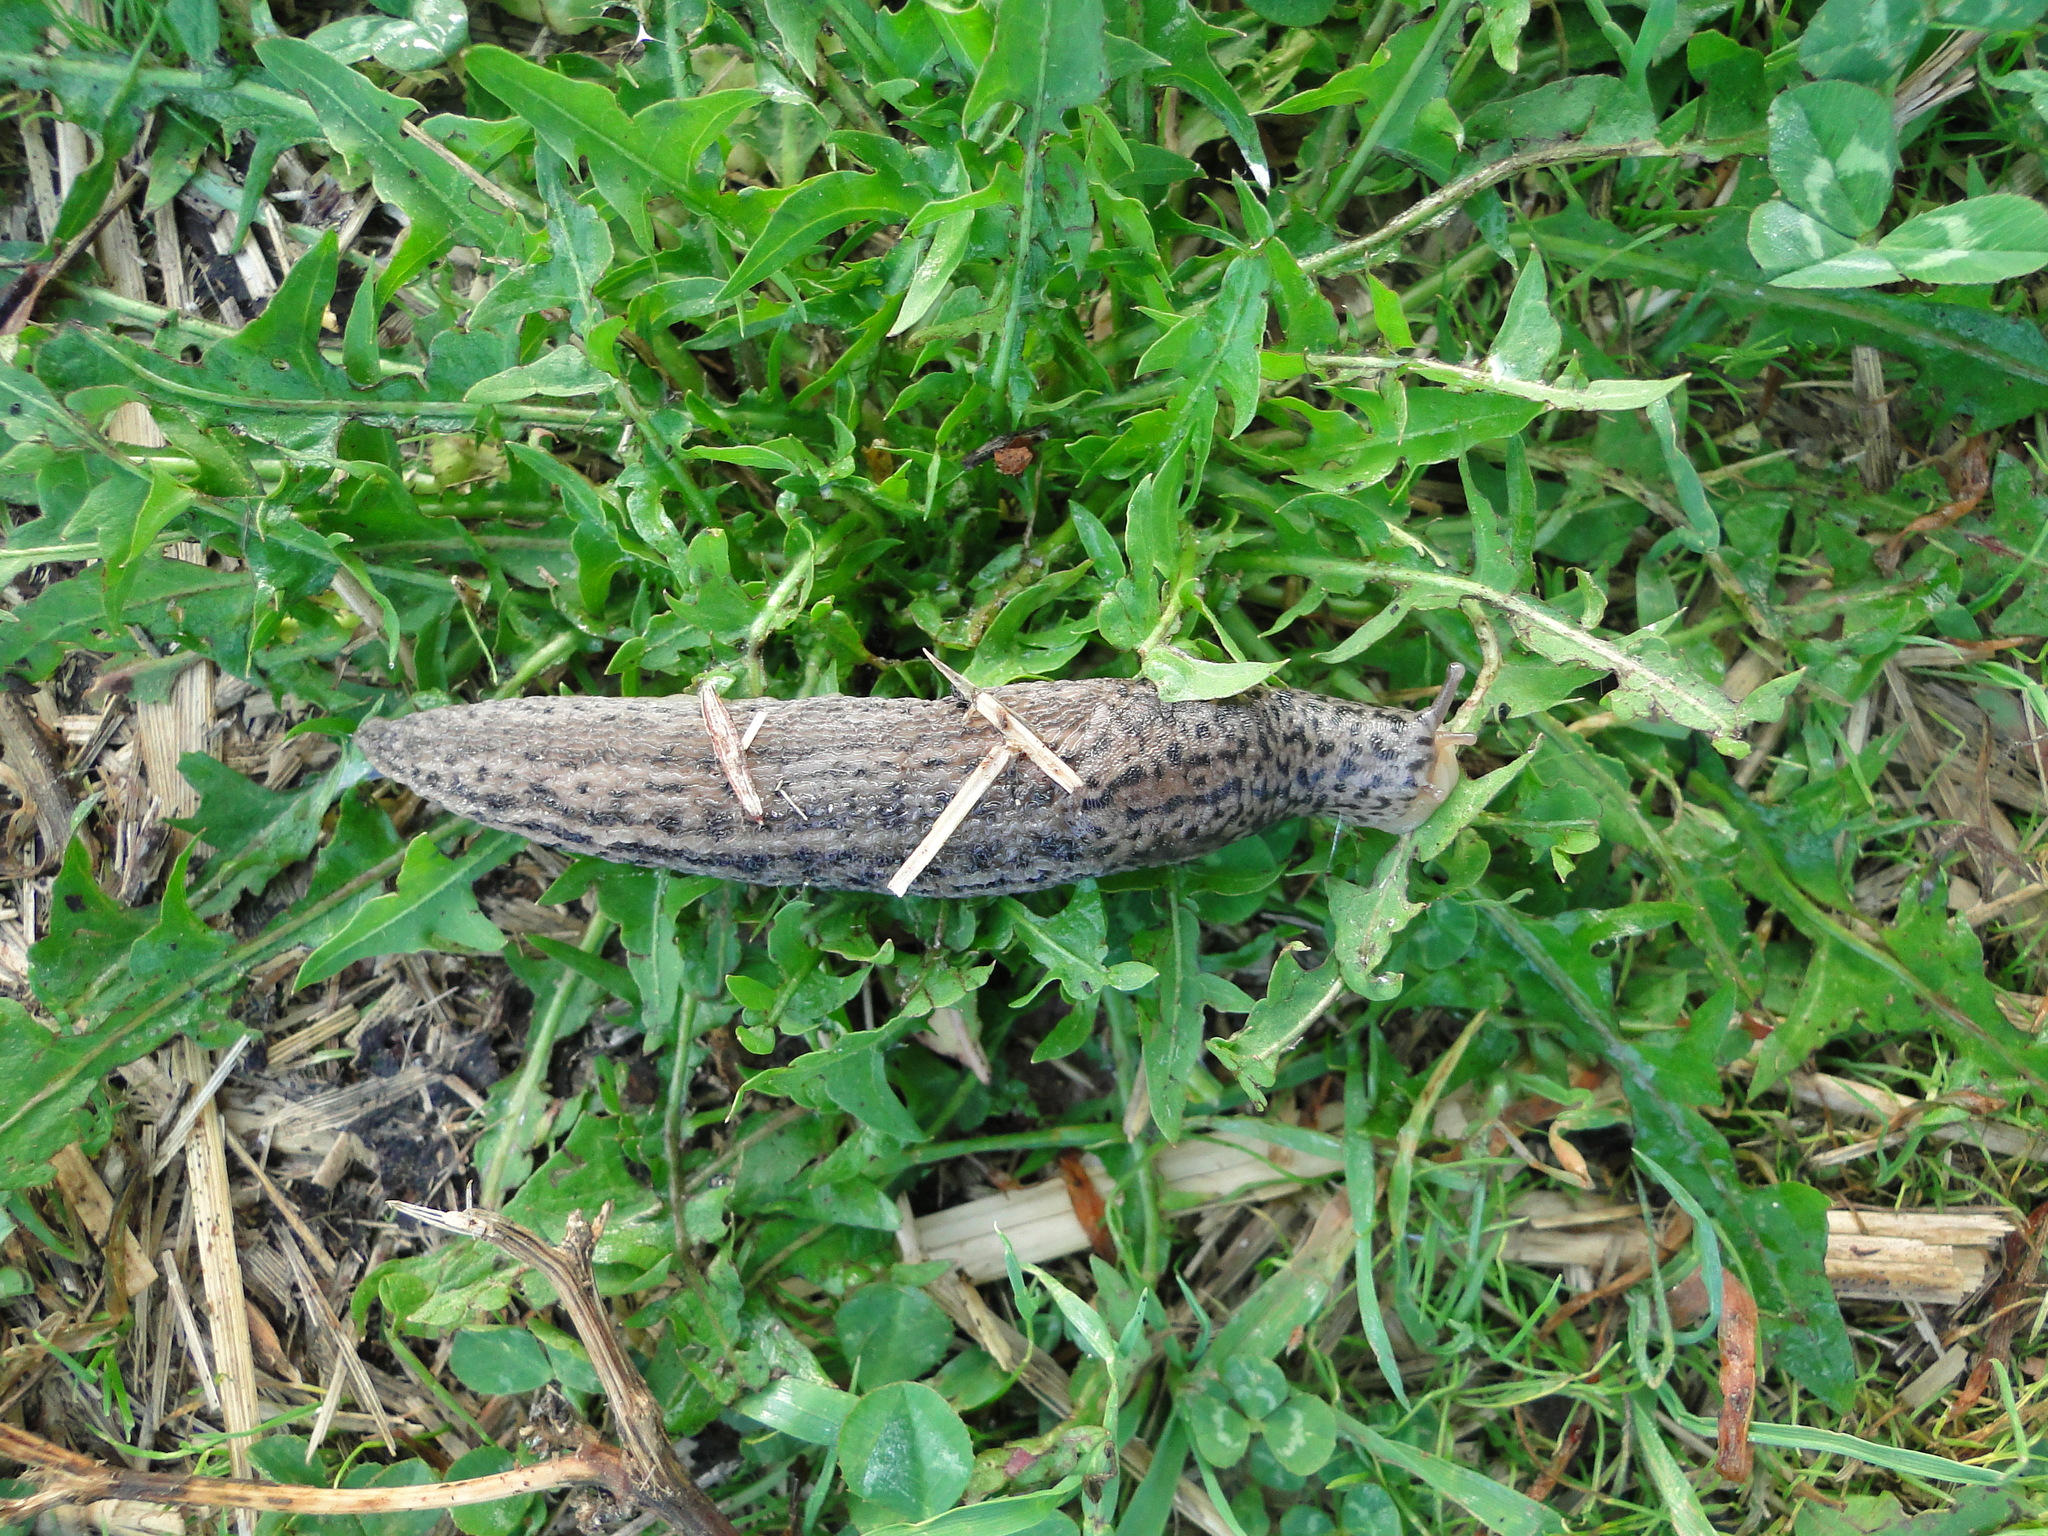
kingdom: Animalia
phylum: Mollusca
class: Gastropoda
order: Stylommatophora
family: Limacidae
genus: Limax
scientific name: Limax maximus
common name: Great grey slug
